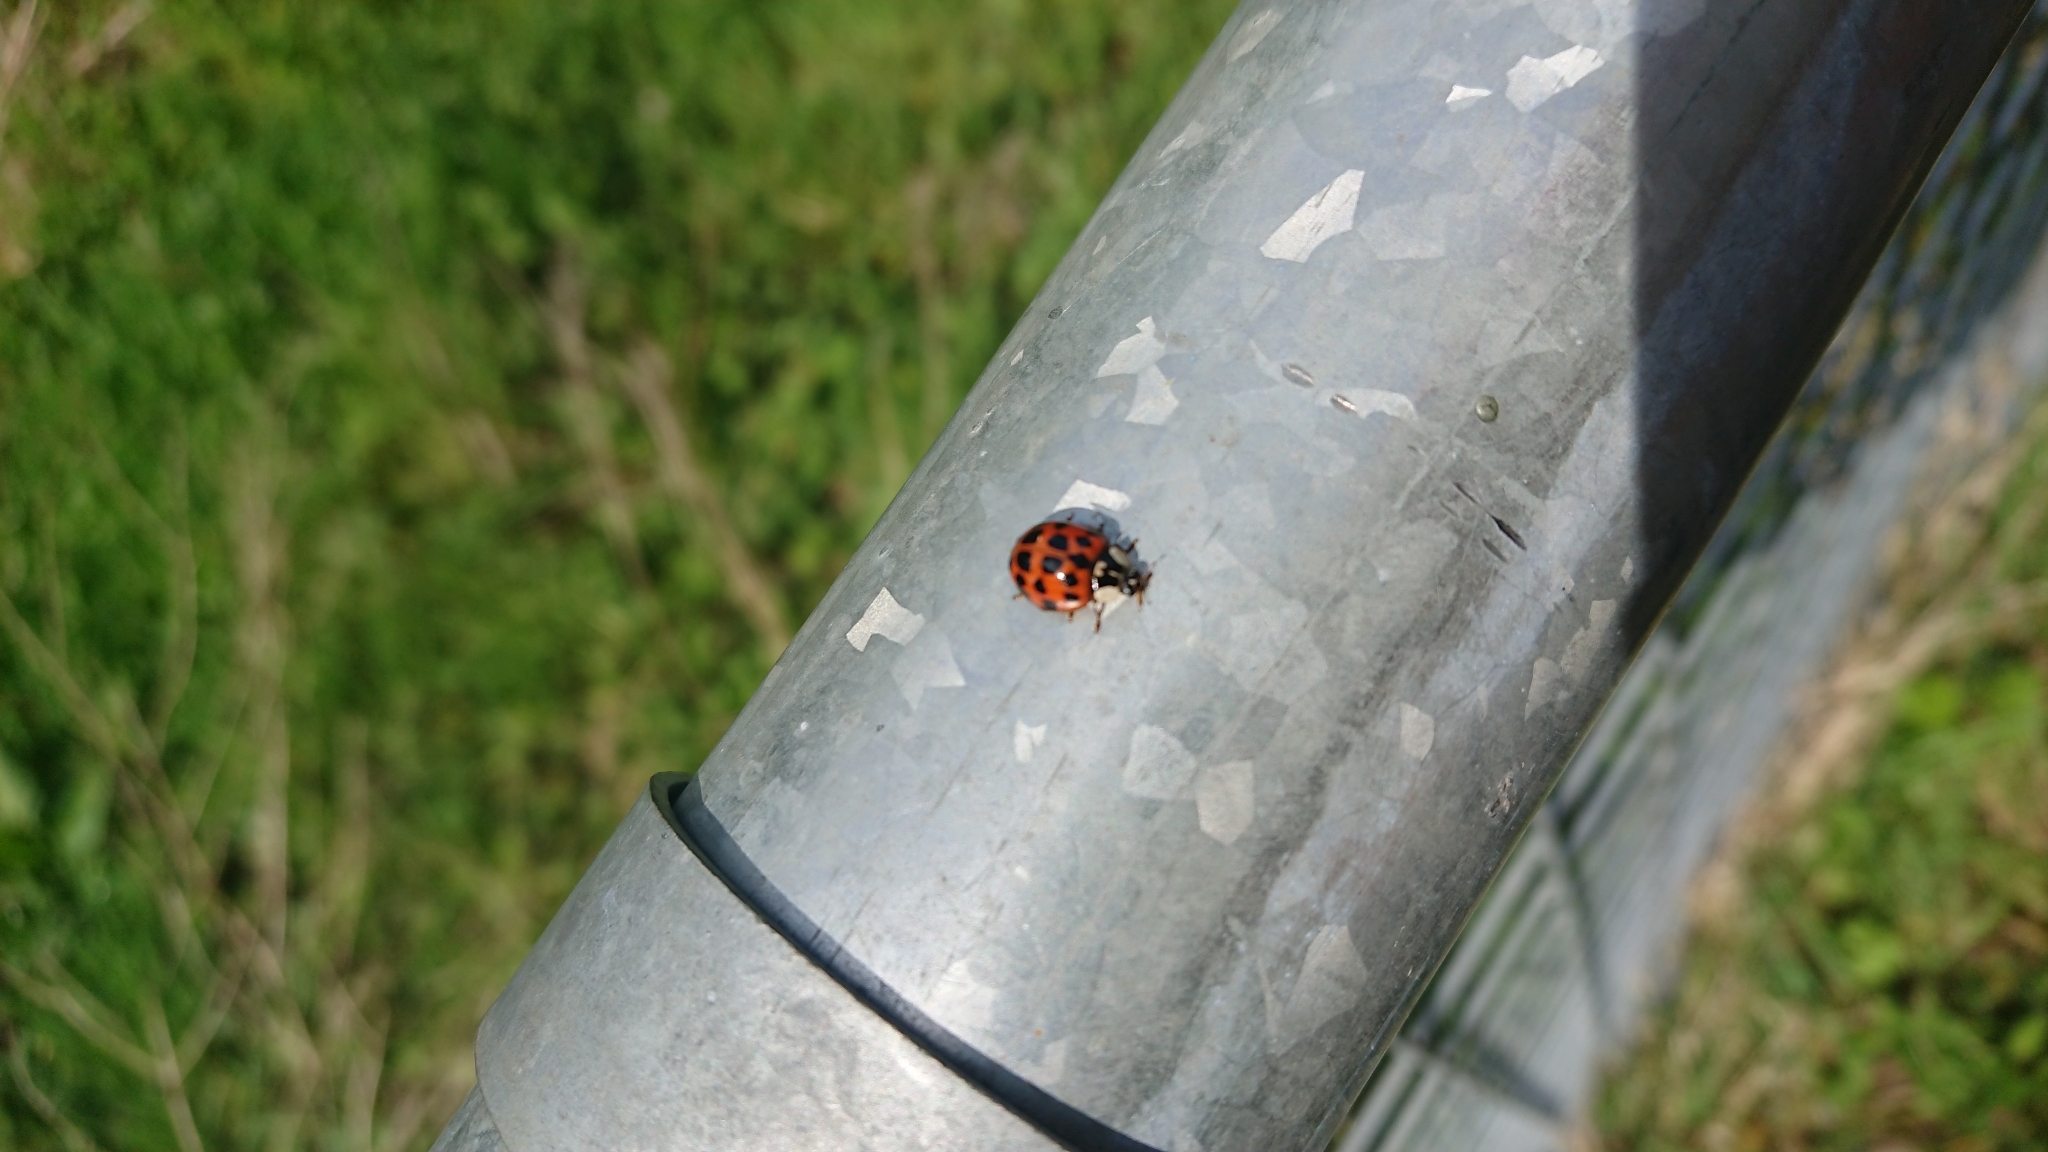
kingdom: Animalia
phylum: Arthropoda
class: Insecta
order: Coleoptera
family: Coccinellidae
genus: Harmonia
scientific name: Harmonia axyridis
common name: Harlequin ladybird
